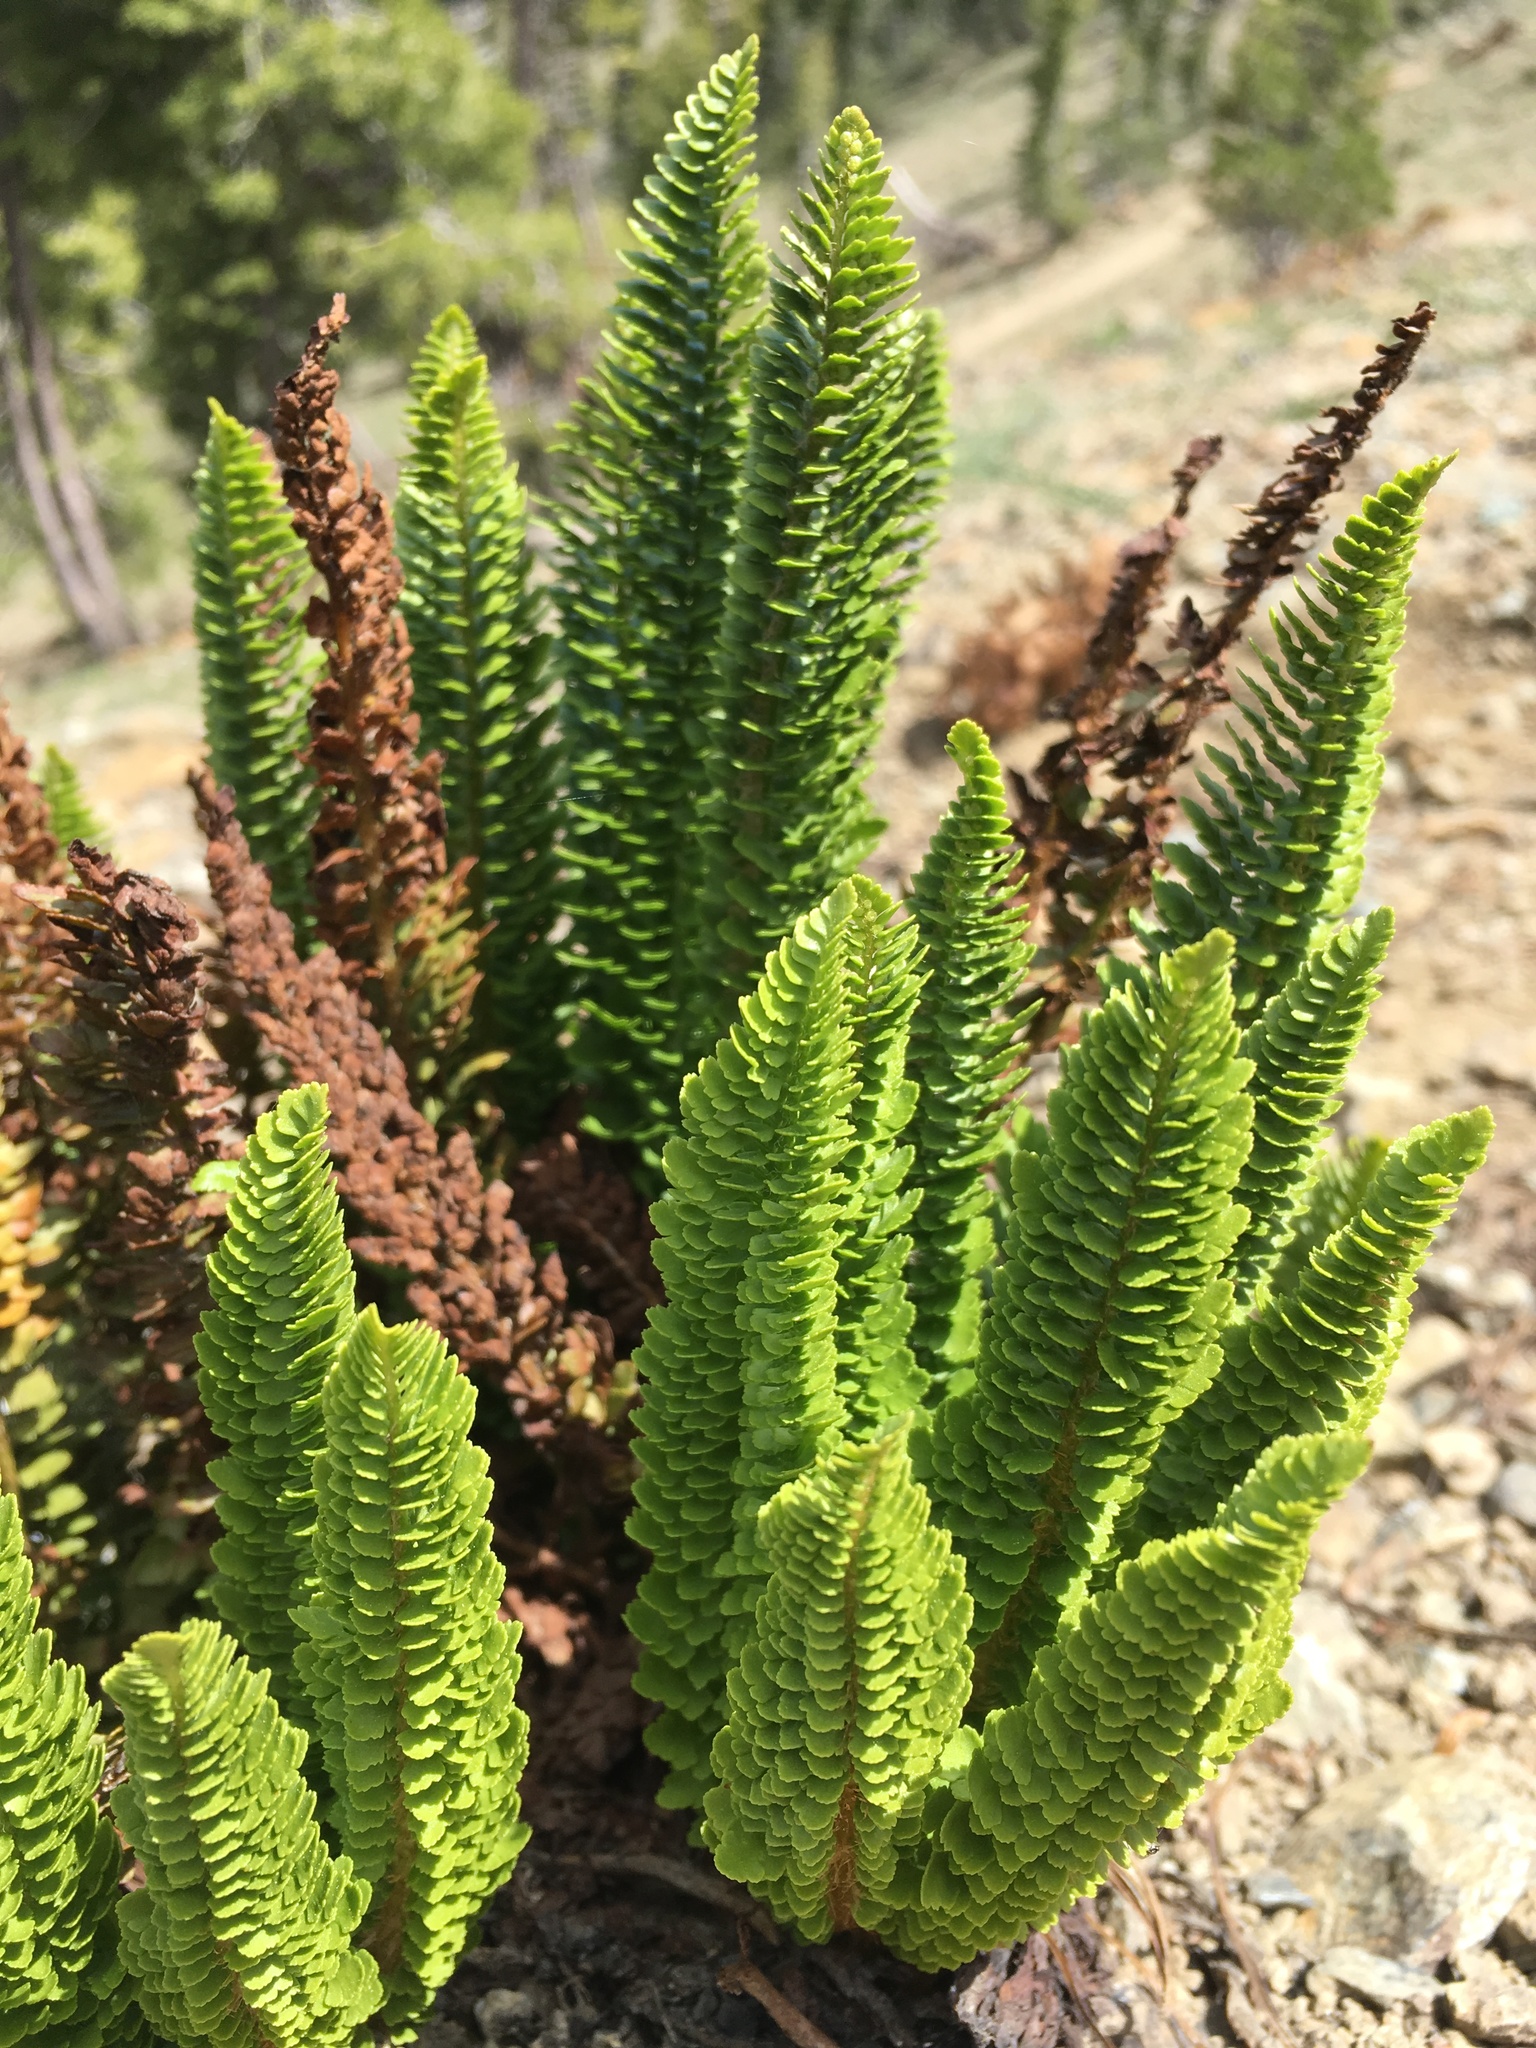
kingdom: Plantae
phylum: Tracheophyta
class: Polypodiopsida
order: Polypodiales
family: Dryopteridaceae
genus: Polystichum
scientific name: Polystichum lemmonii
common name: Lemmon's holly fern
